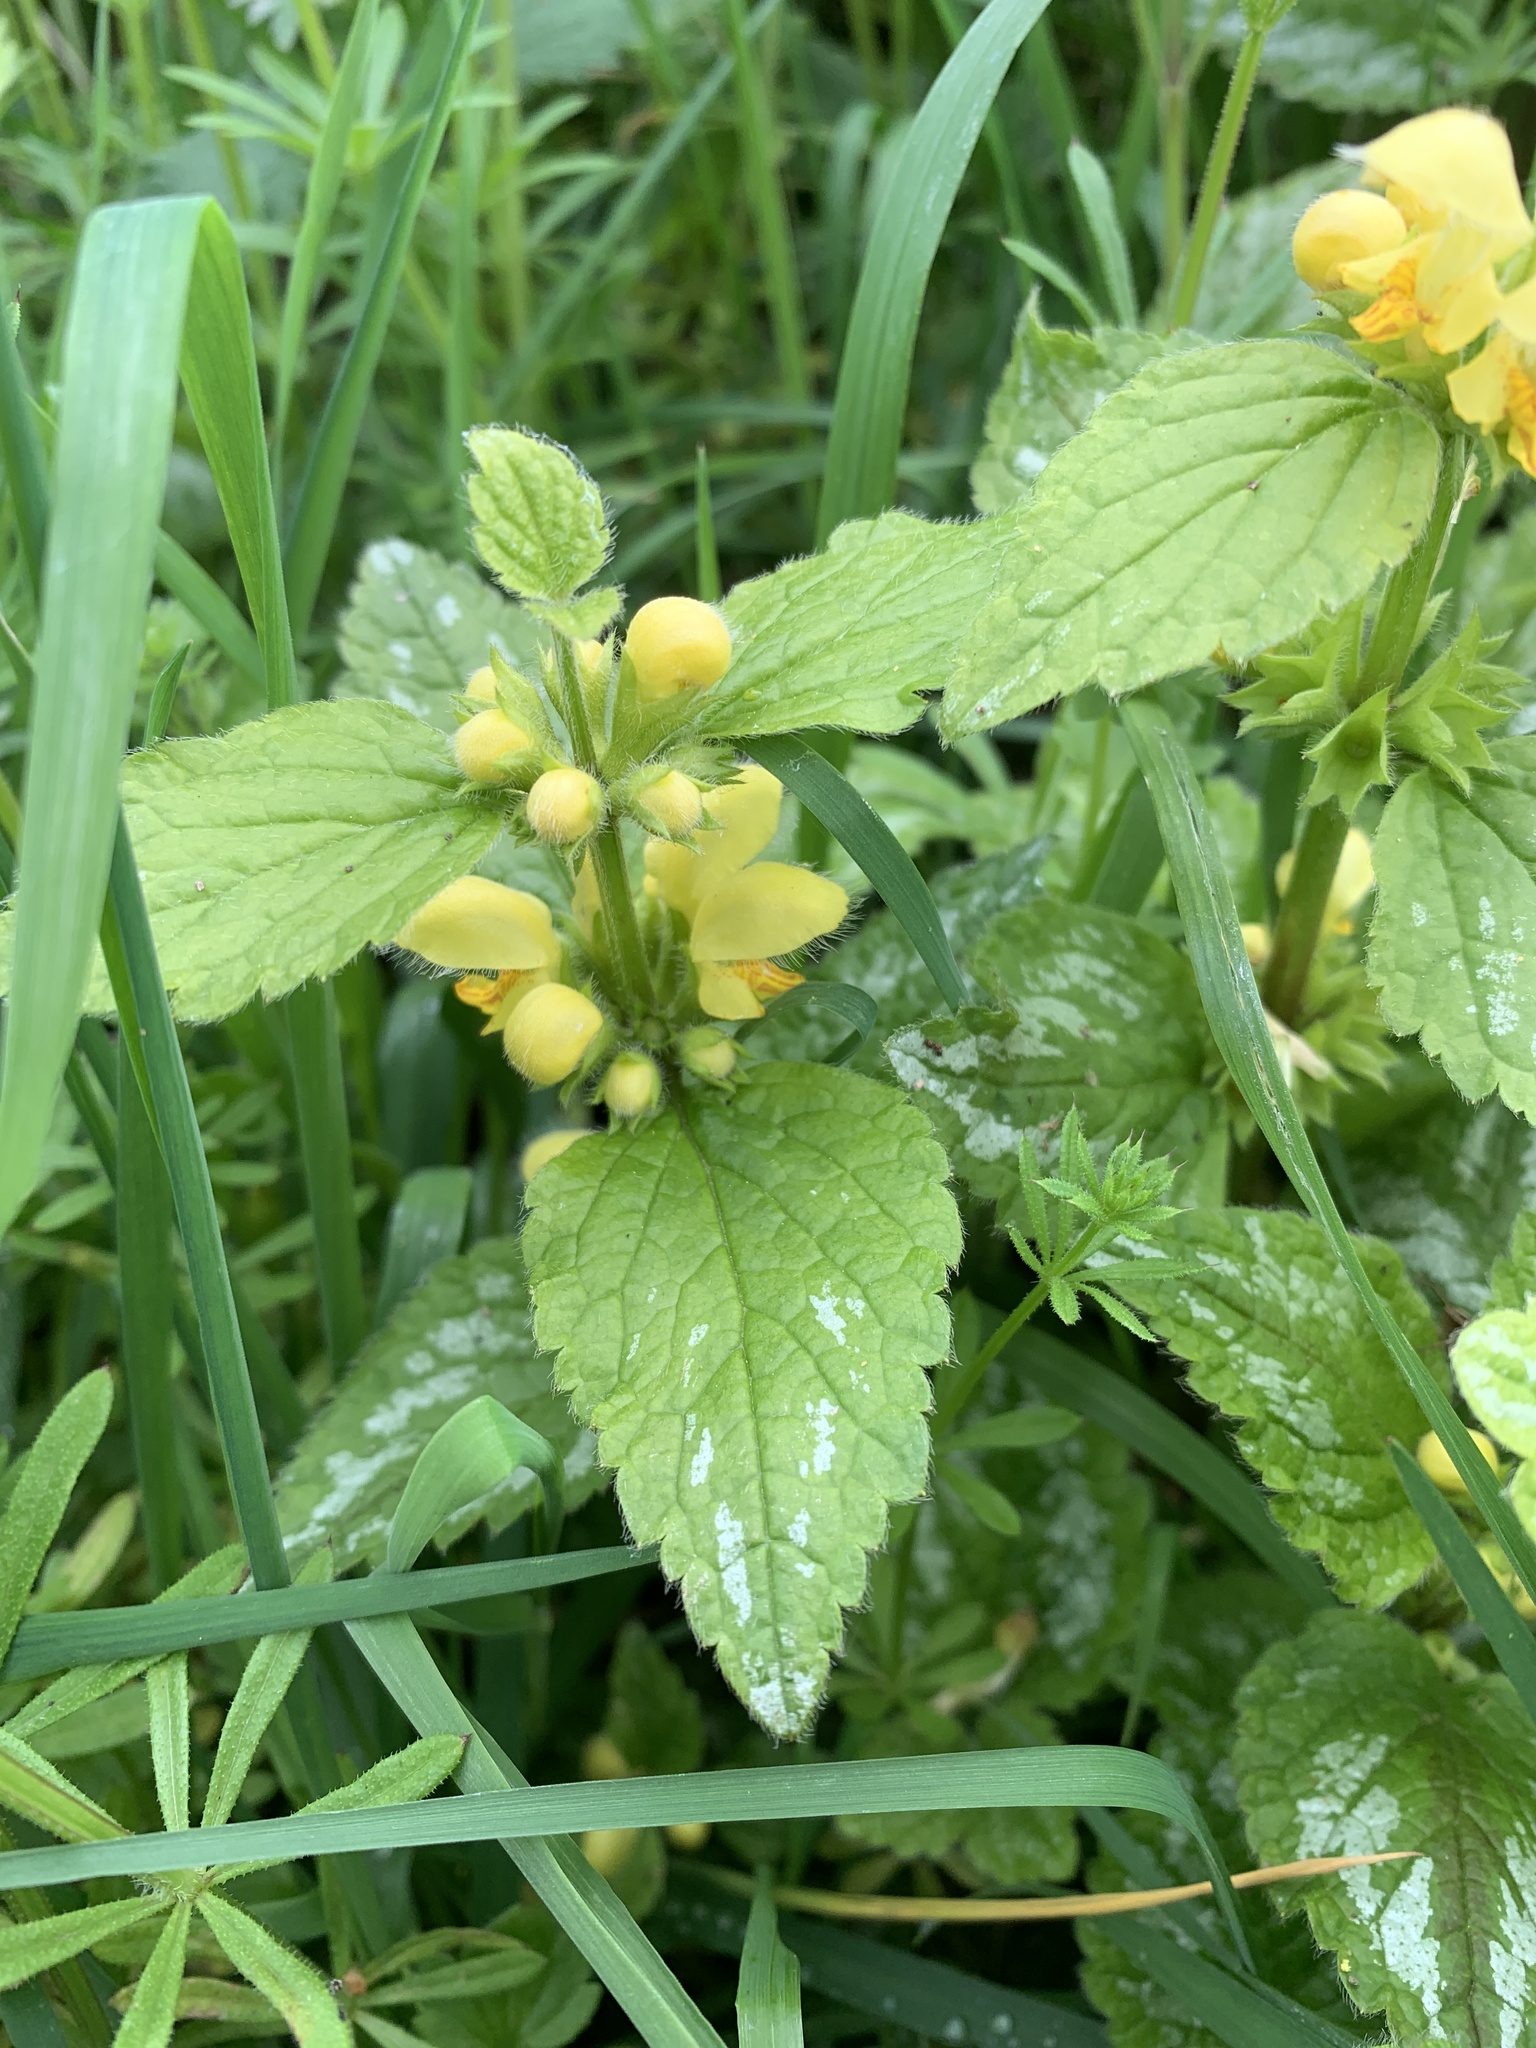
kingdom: Plantae
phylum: Tracheophyta
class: Magnoliopsida
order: Lamiales
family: Lamiaceae
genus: Lamium
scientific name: Lamium galeobdolon
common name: Yellow archangel
